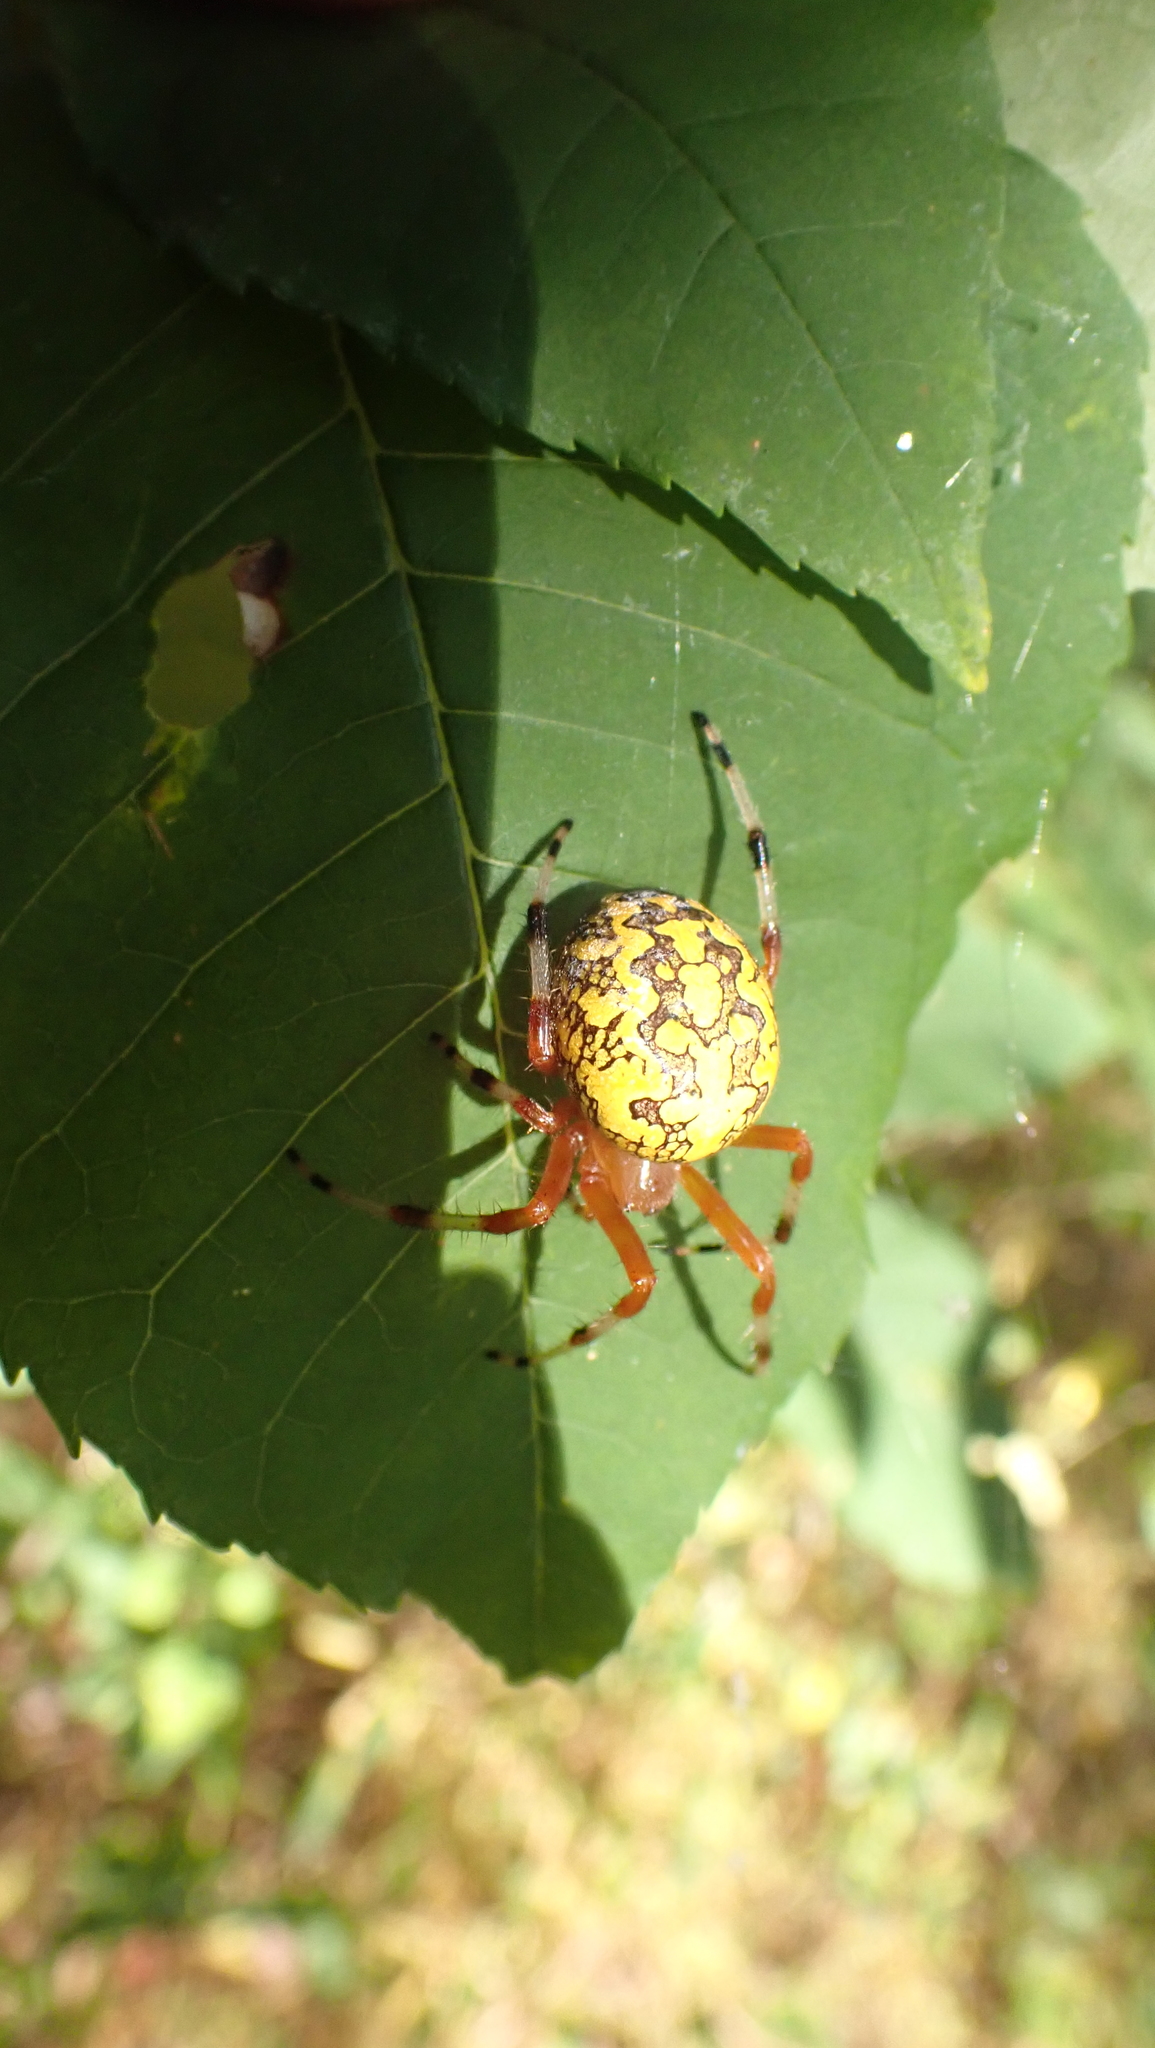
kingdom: Animalia
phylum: Arthropoda
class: Arachnida
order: Araneae
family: Araneidae
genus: Araneus
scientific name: Araneus marmoreus
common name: Marbled orbweaver
